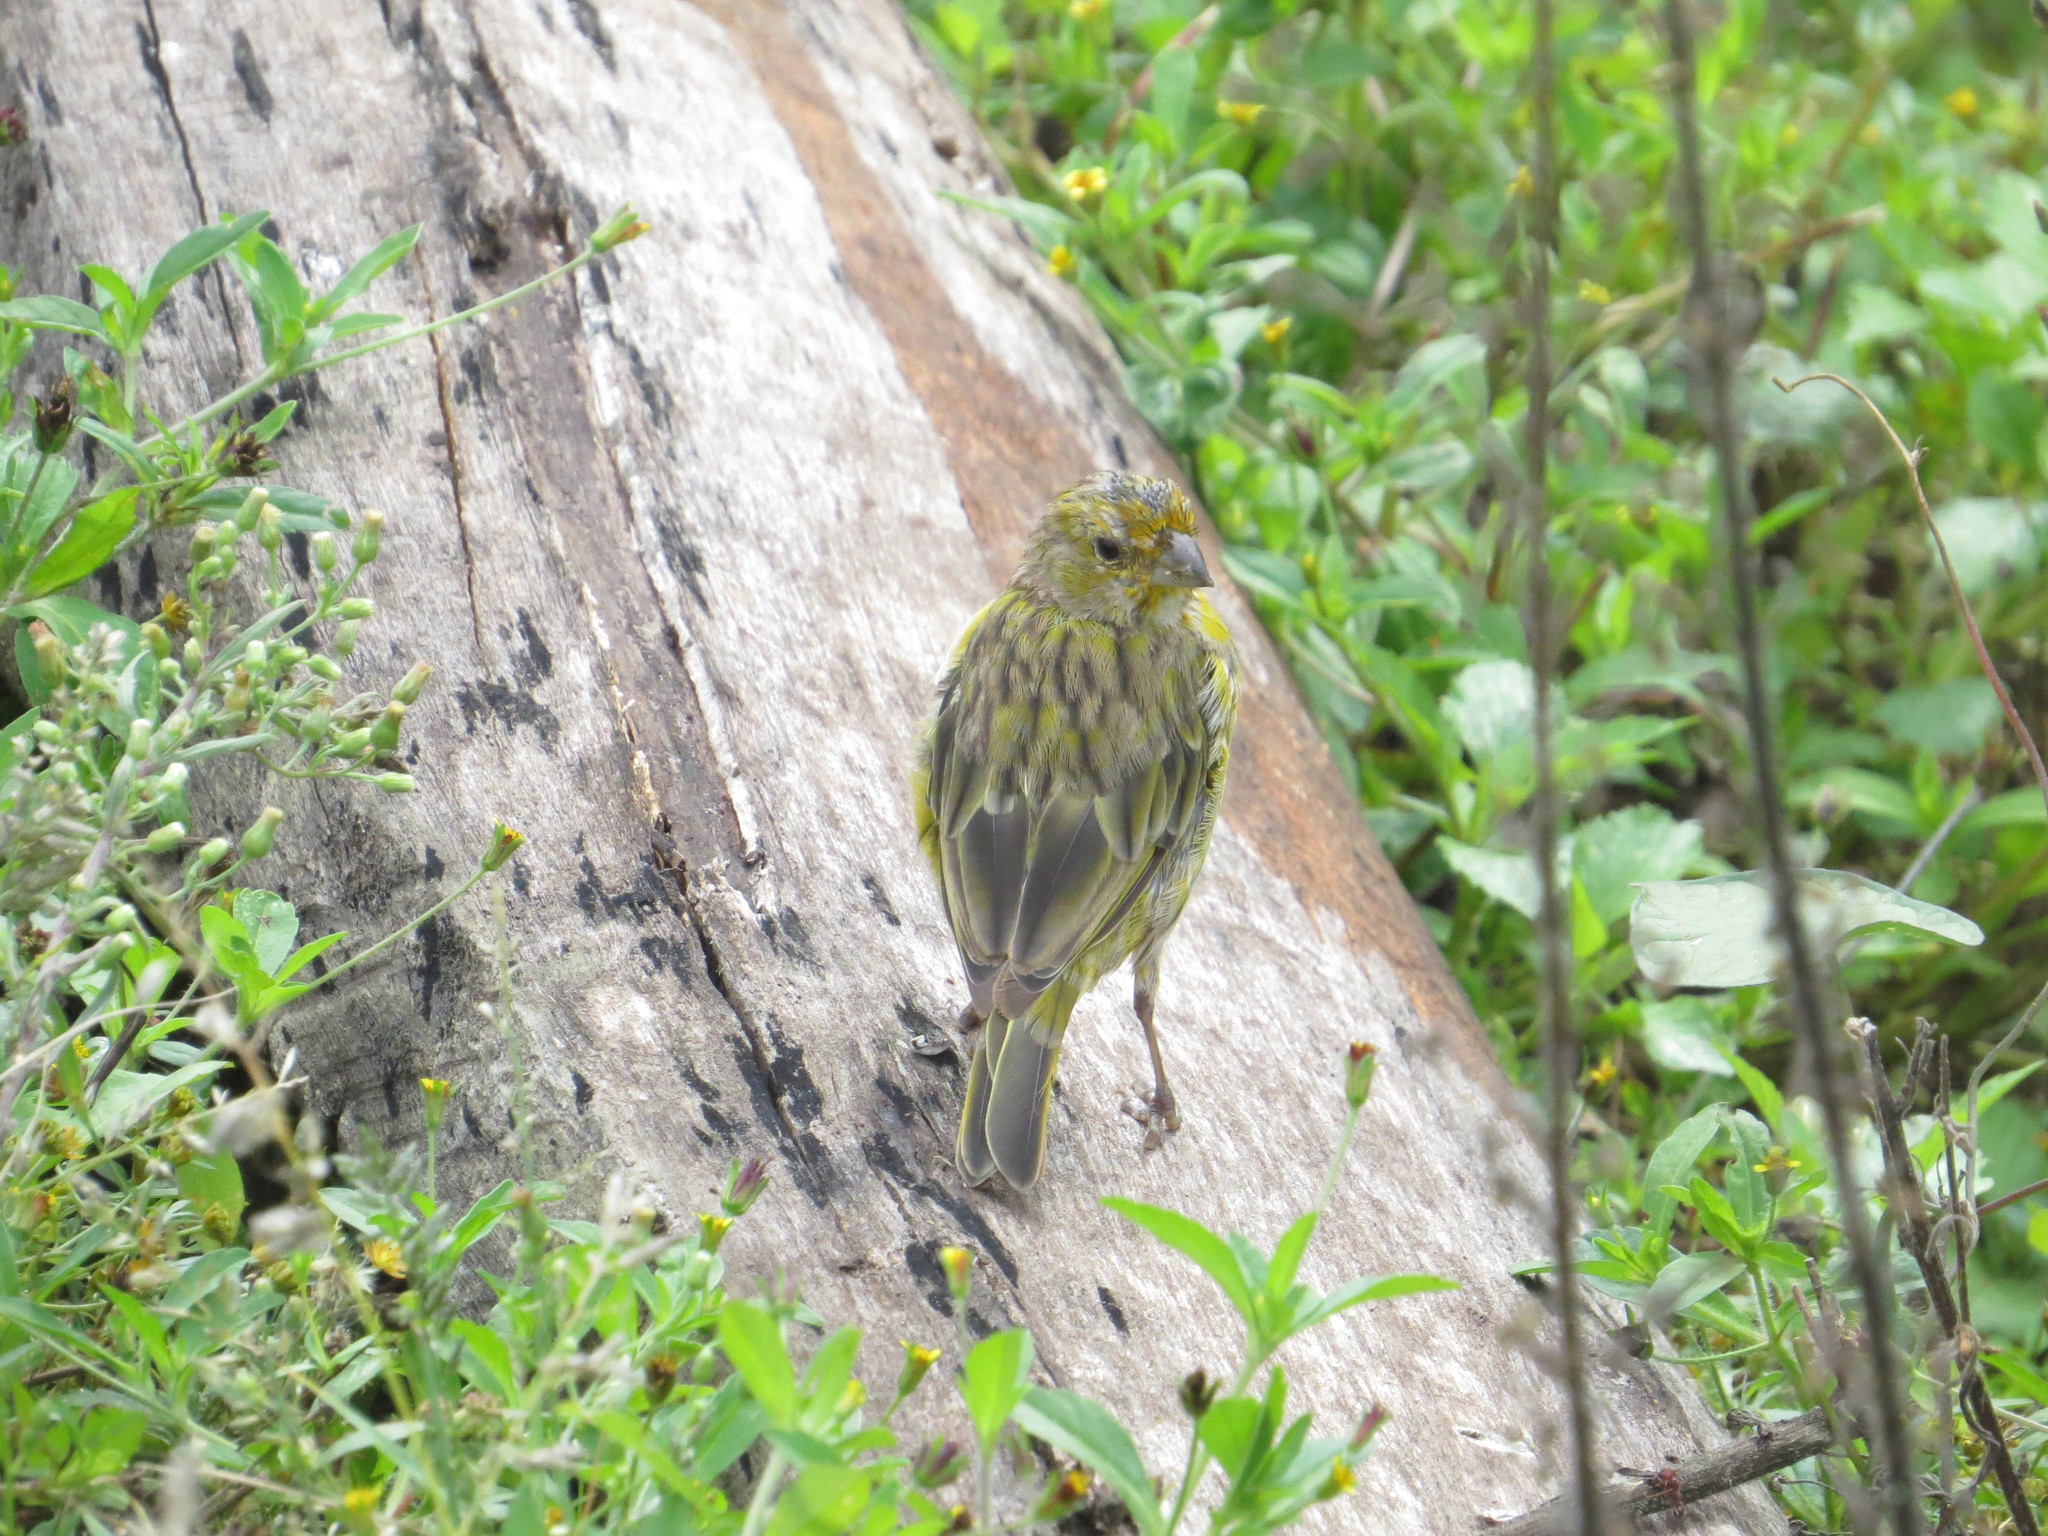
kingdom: Animalia
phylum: Chordata
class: Aves
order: Passeriformes
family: Thraupidae
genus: Sicalis
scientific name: Sicalis flaveola
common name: Saffron finch
